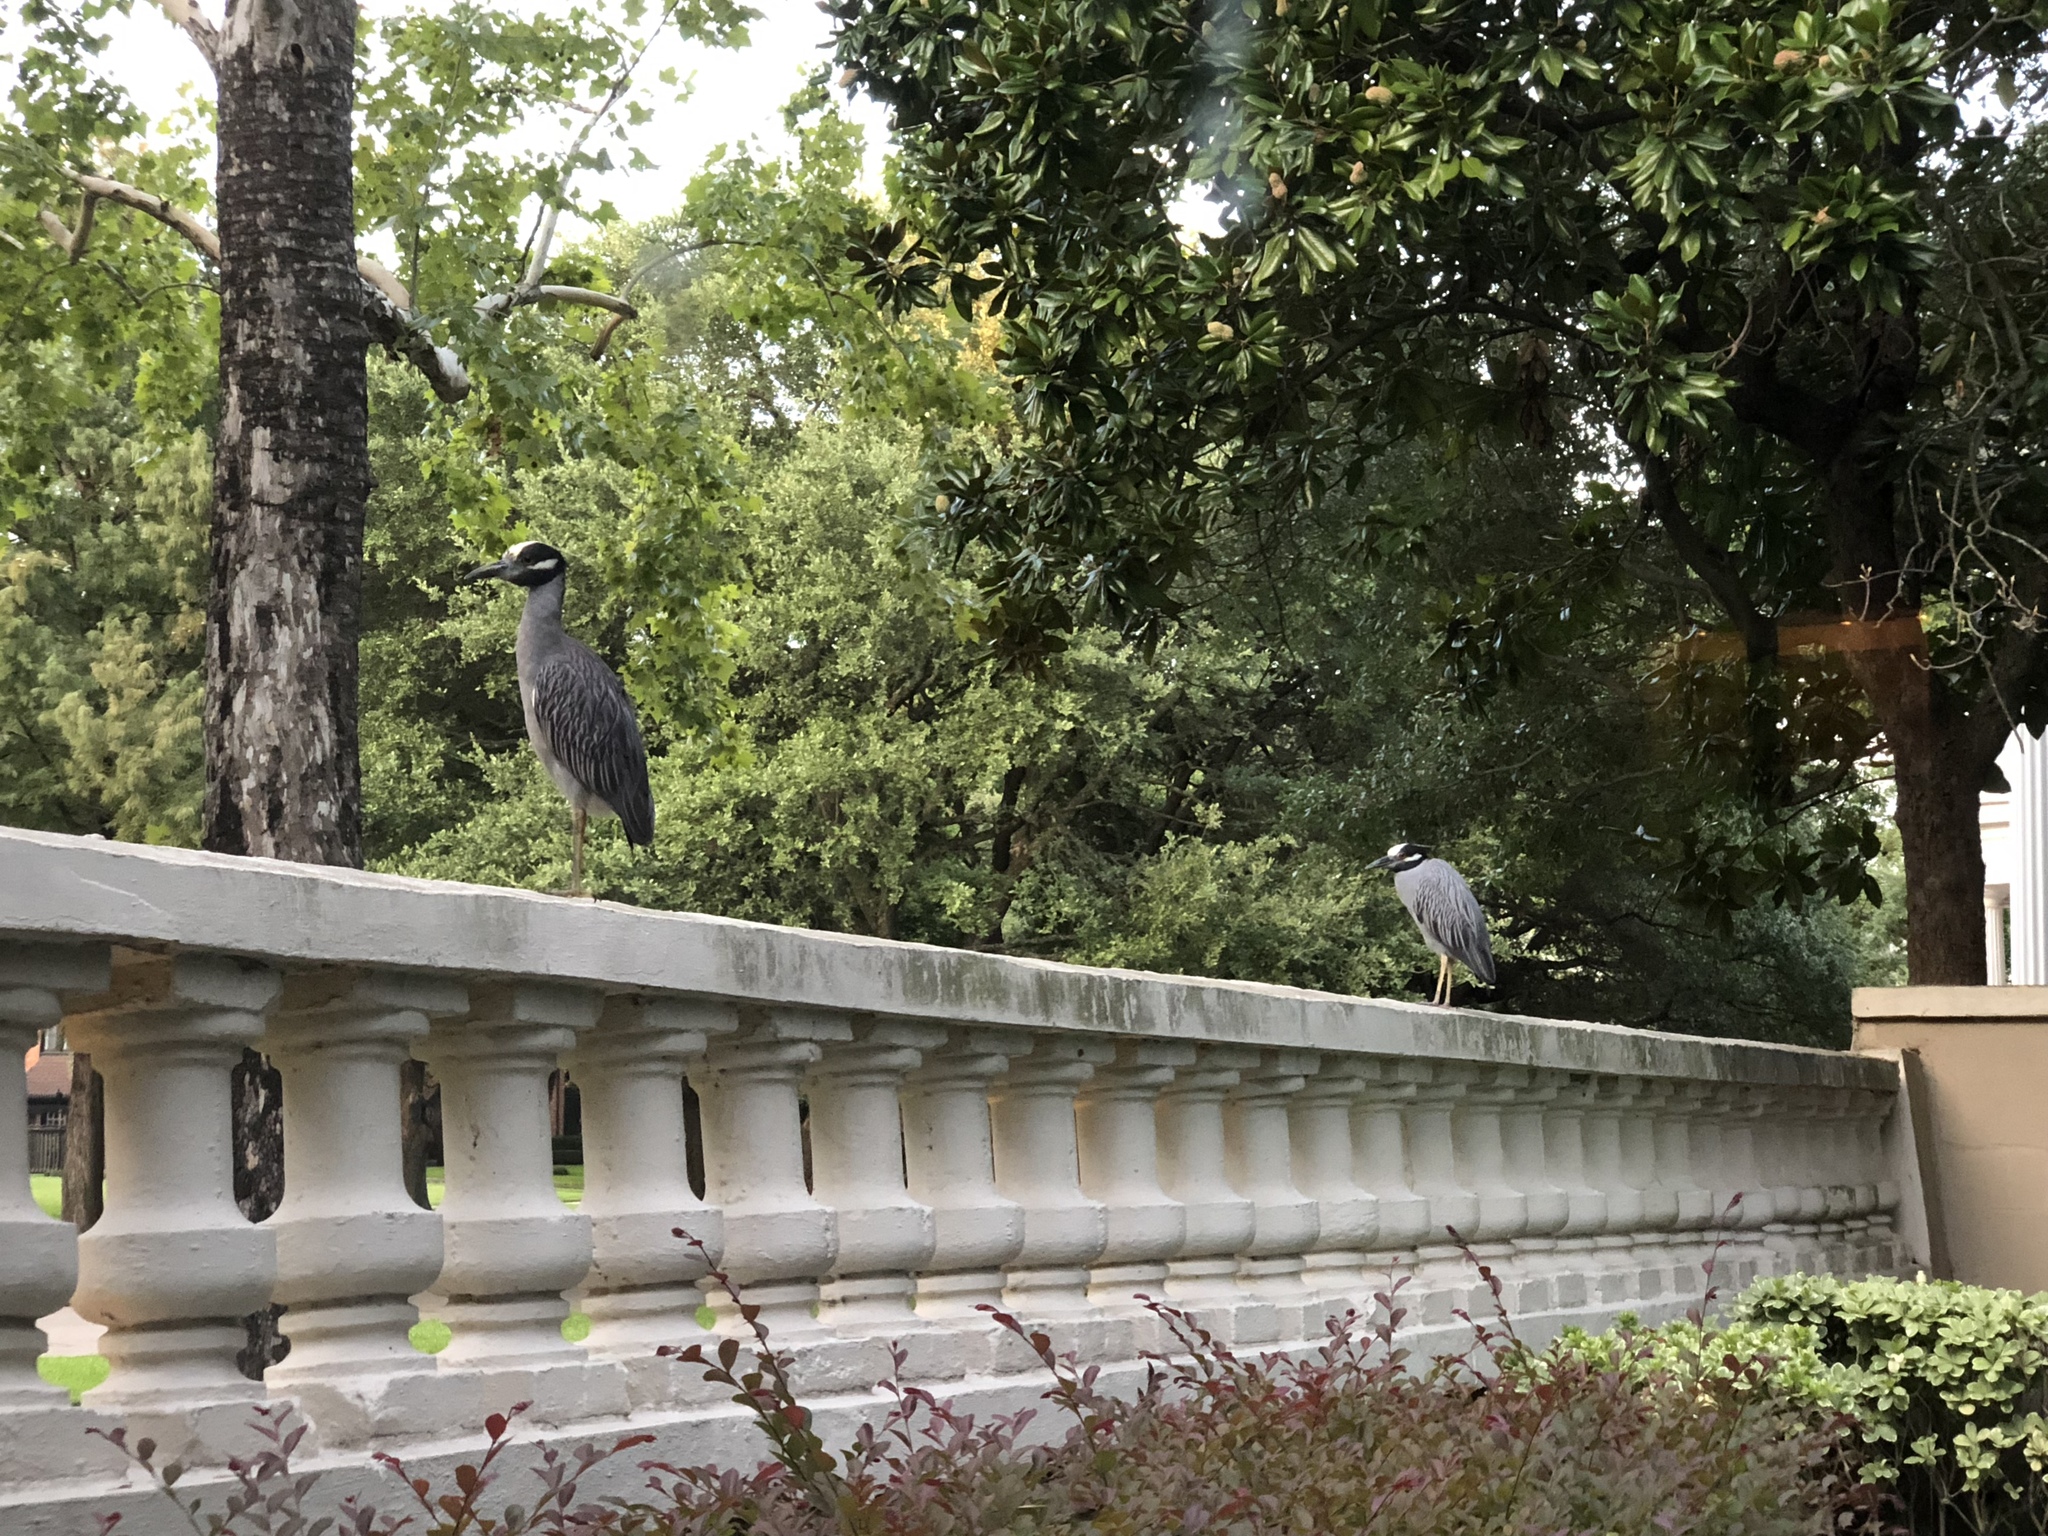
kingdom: Animalia
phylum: Chordata
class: Aves
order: Pelecaniformes
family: Ardeidae
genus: Nyctanassa
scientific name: Nyctanassa violacea
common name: Yellow-crowned night heron
